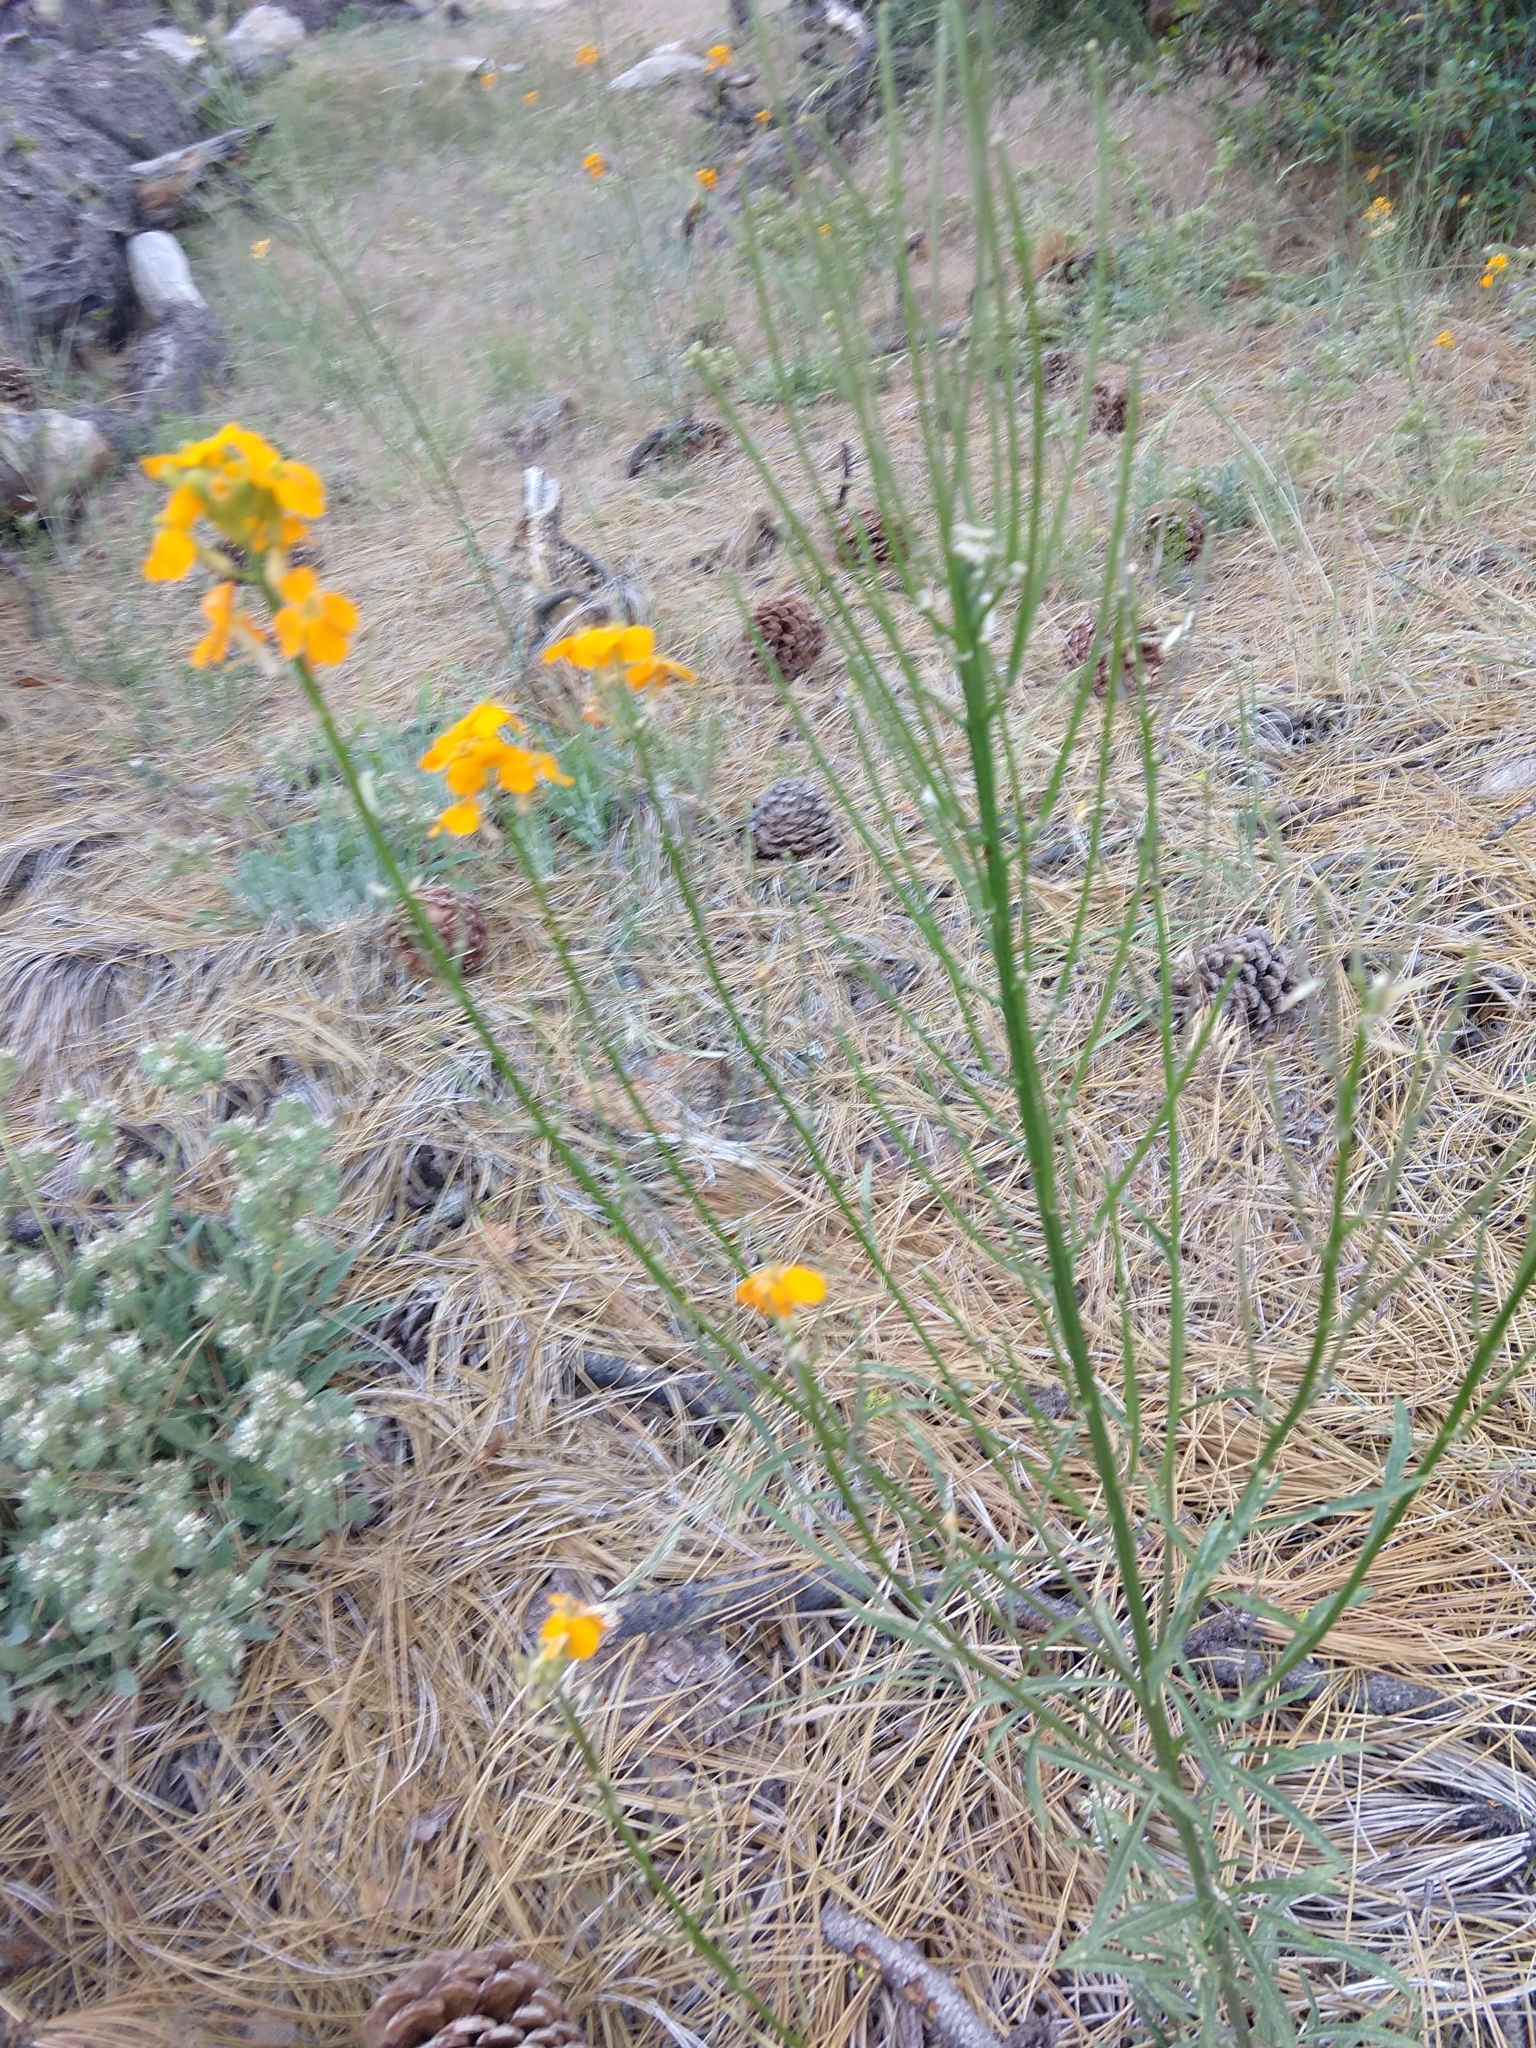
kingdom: Plantae
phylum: Tracheophyta
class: Magnoliopsida
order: Brassicales
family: Brassicaceae
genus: Erysimum
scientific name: Erysimum capitatum
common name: Western wallflower
